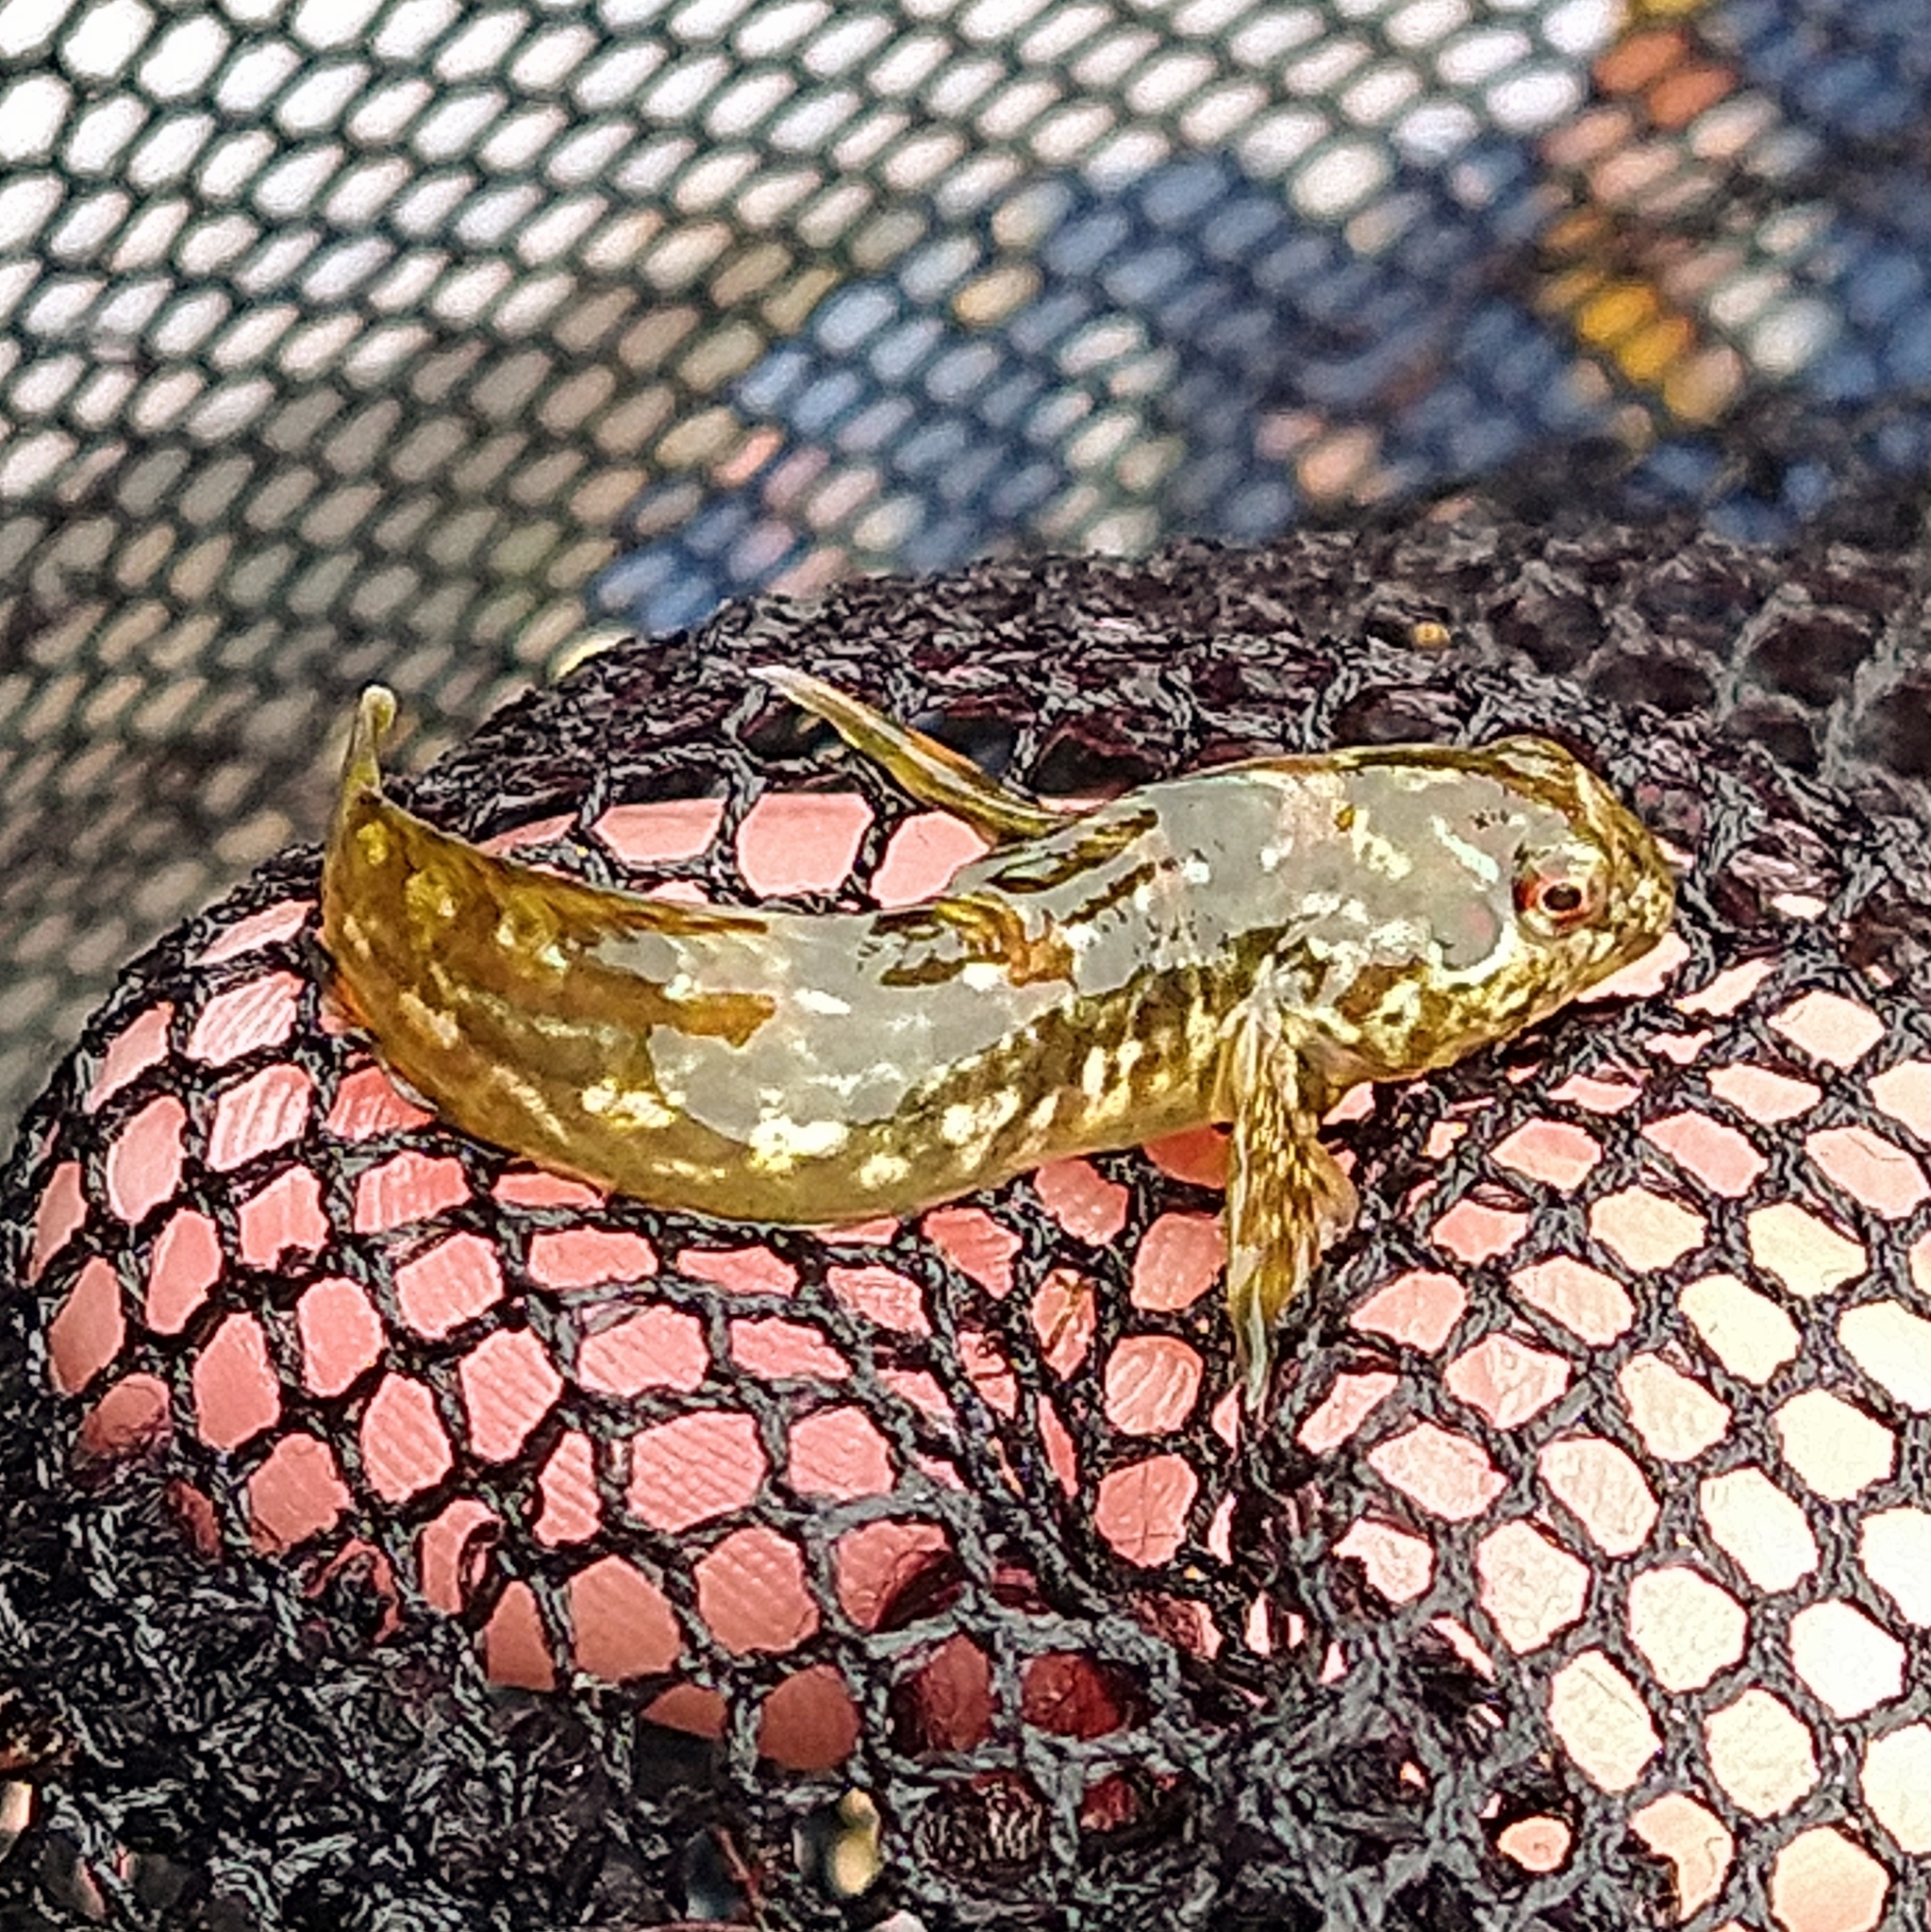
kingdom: Animalia
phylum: Chordata
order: Perciformes
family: Blenniidae
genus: Lipophrys
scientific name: Lipophrys pholis
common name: Shanny
